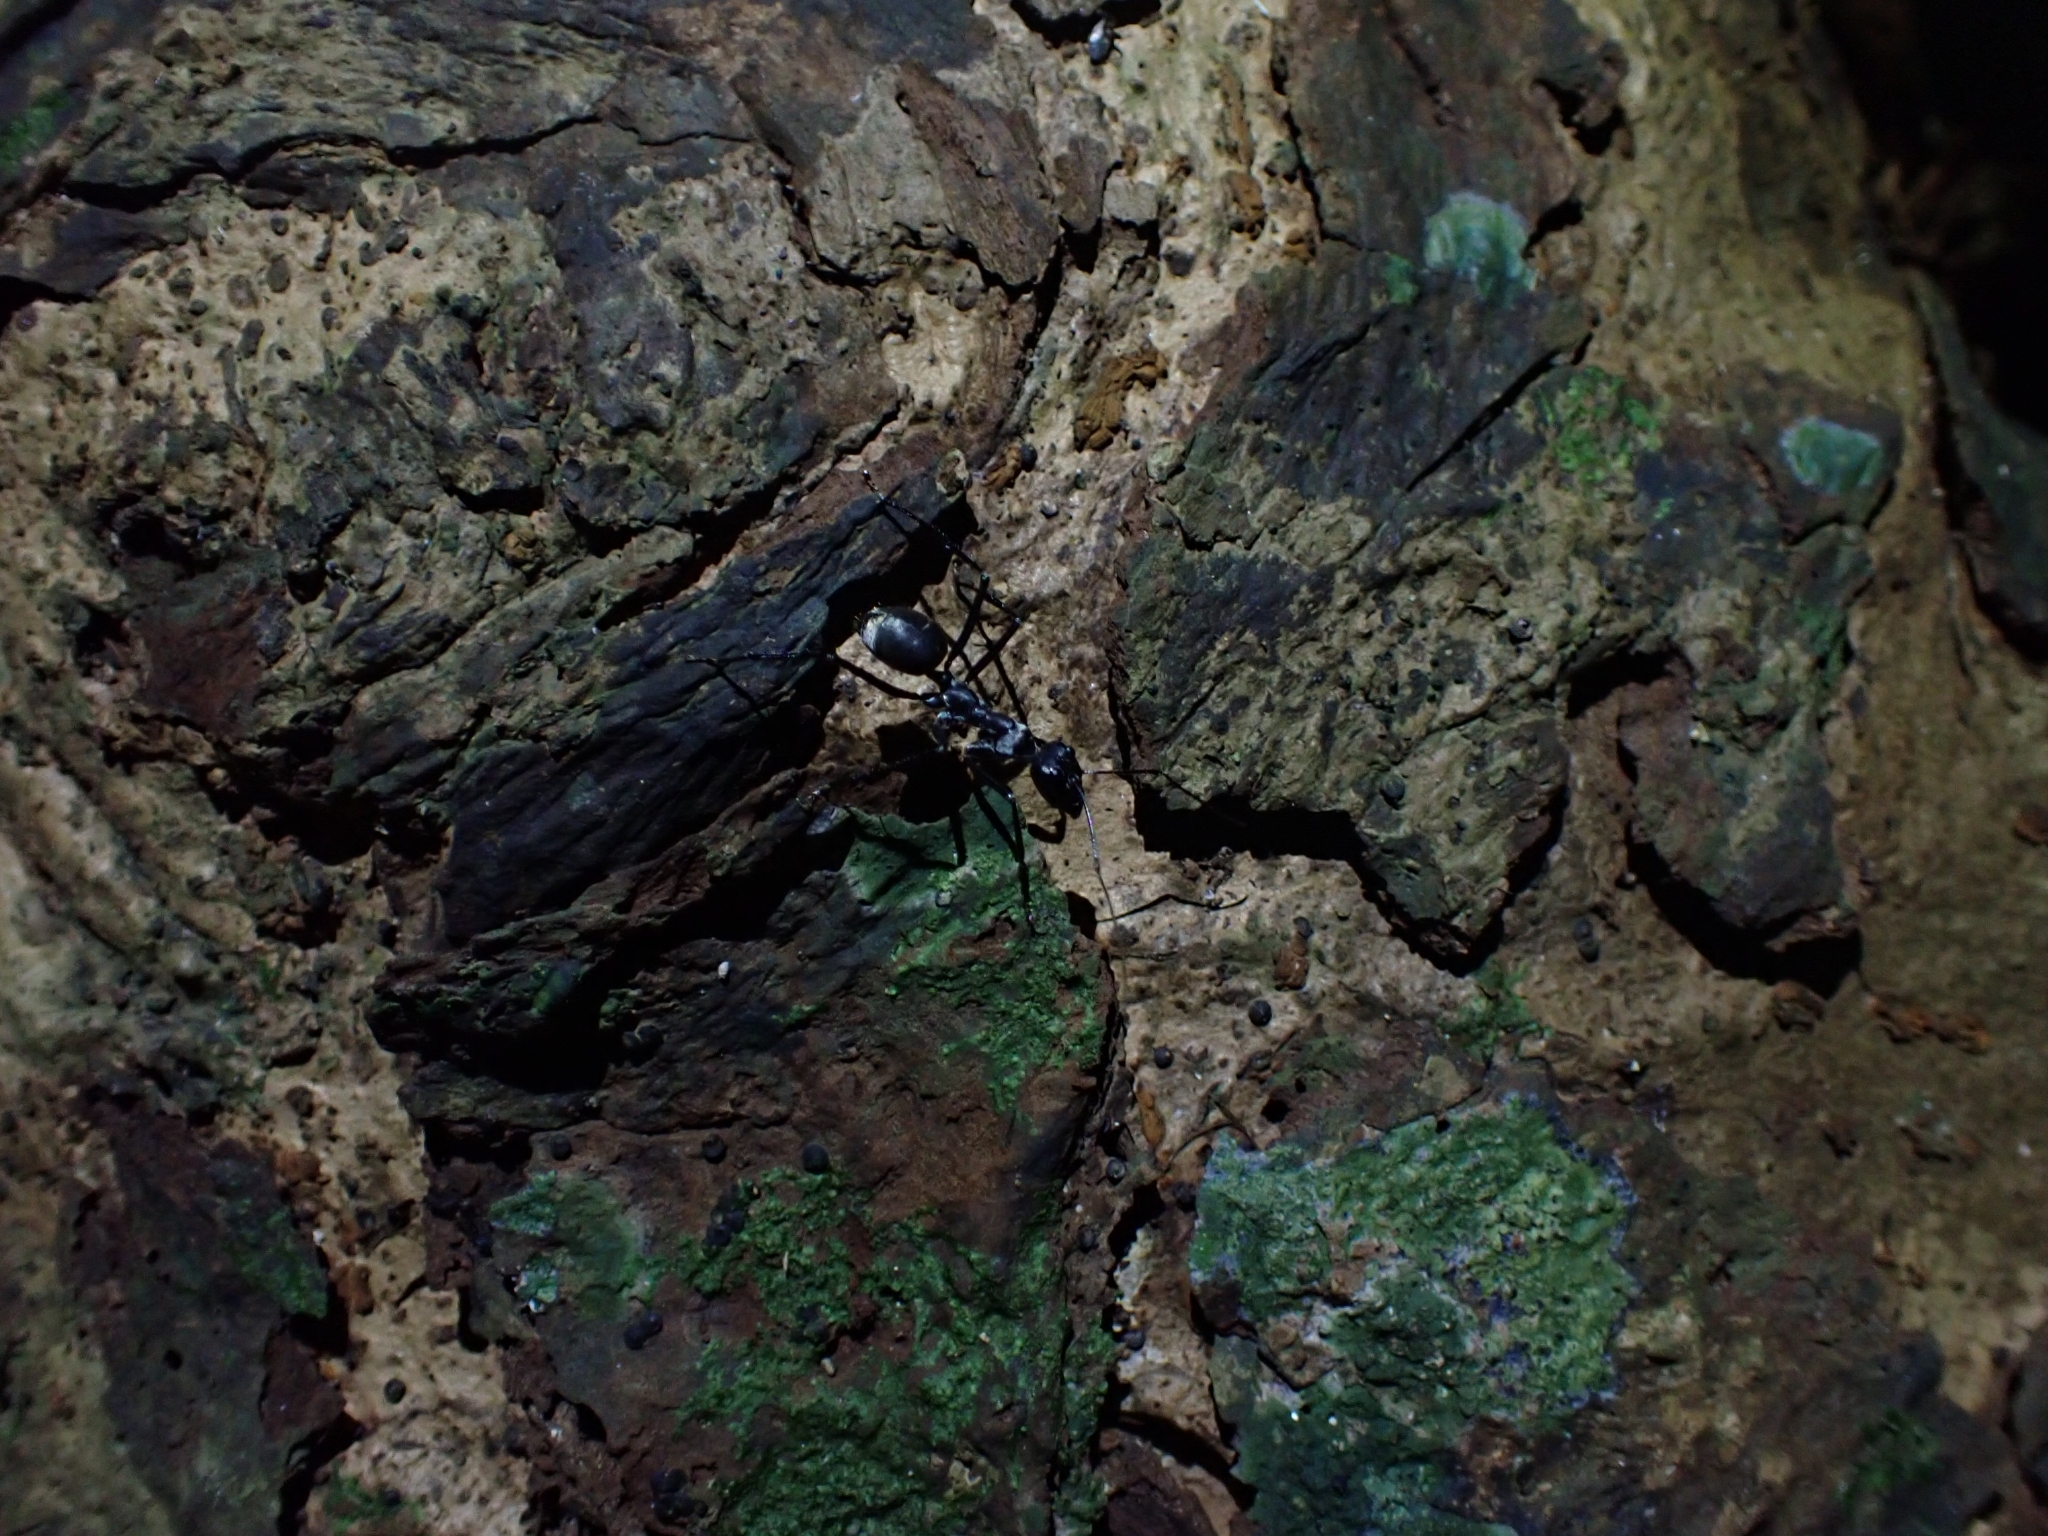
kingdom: Animalia
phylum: Arthropoda
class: Insecta
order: Hymenoptera
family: Formicidae
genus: Notostigma
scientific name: Notostigma carazzii
